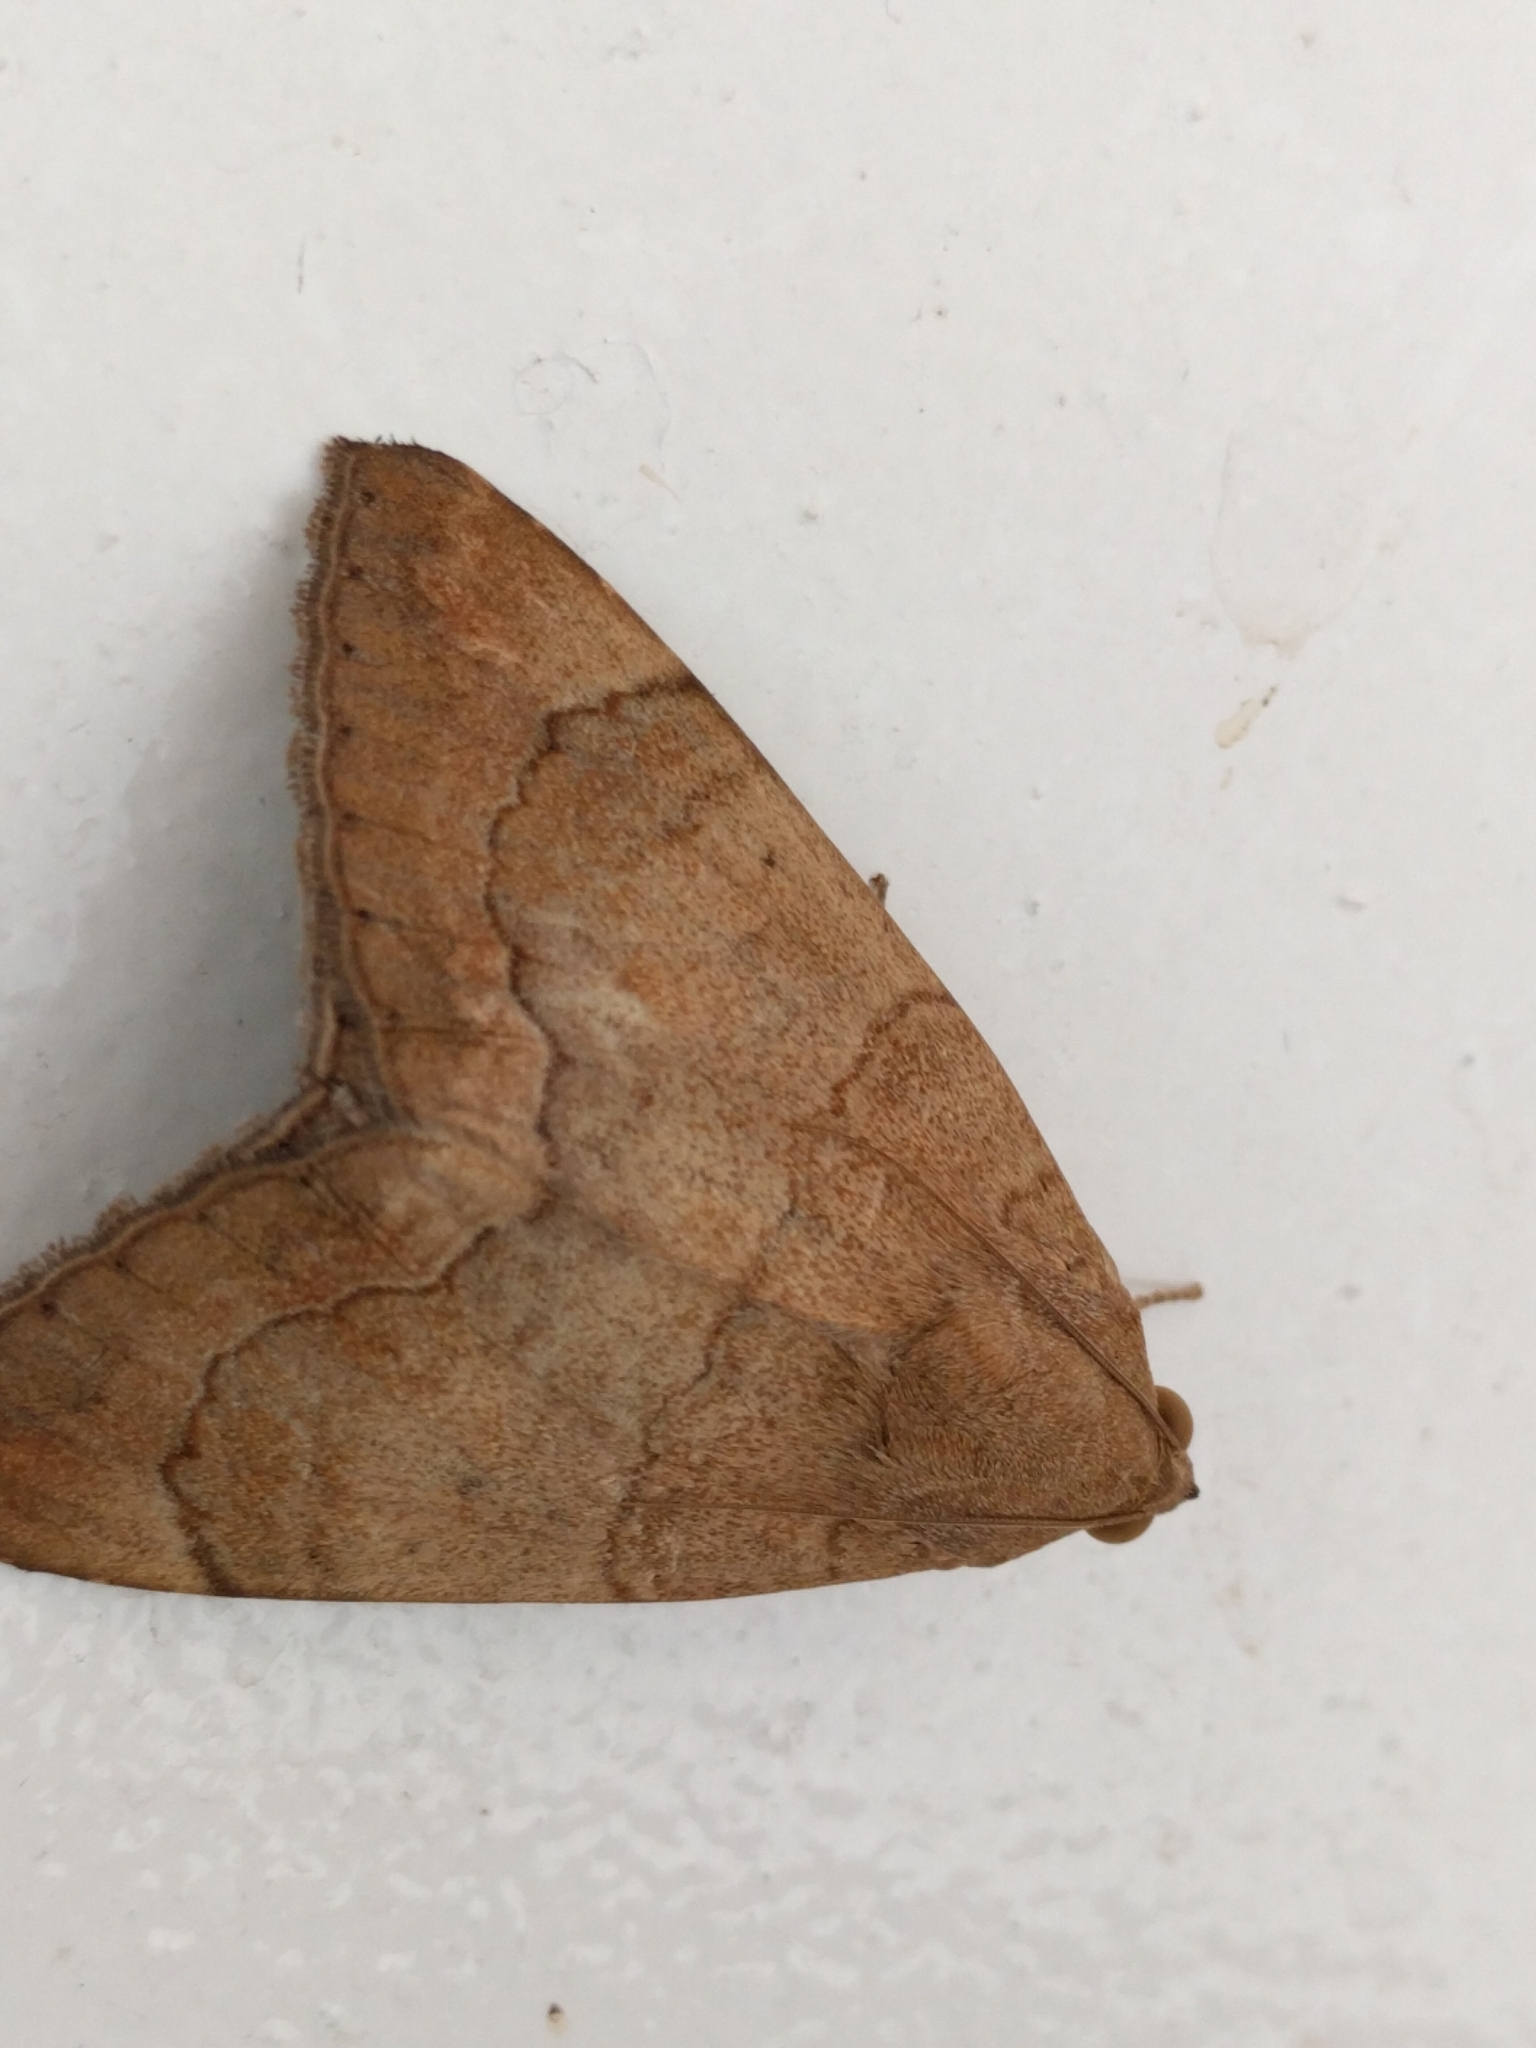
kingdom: Animalia
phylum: Arthropoda
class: Insecta
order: Lepidoptera
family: Erebidae
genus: Achaea
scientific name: Achaea janata
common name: Croton caterpillar
